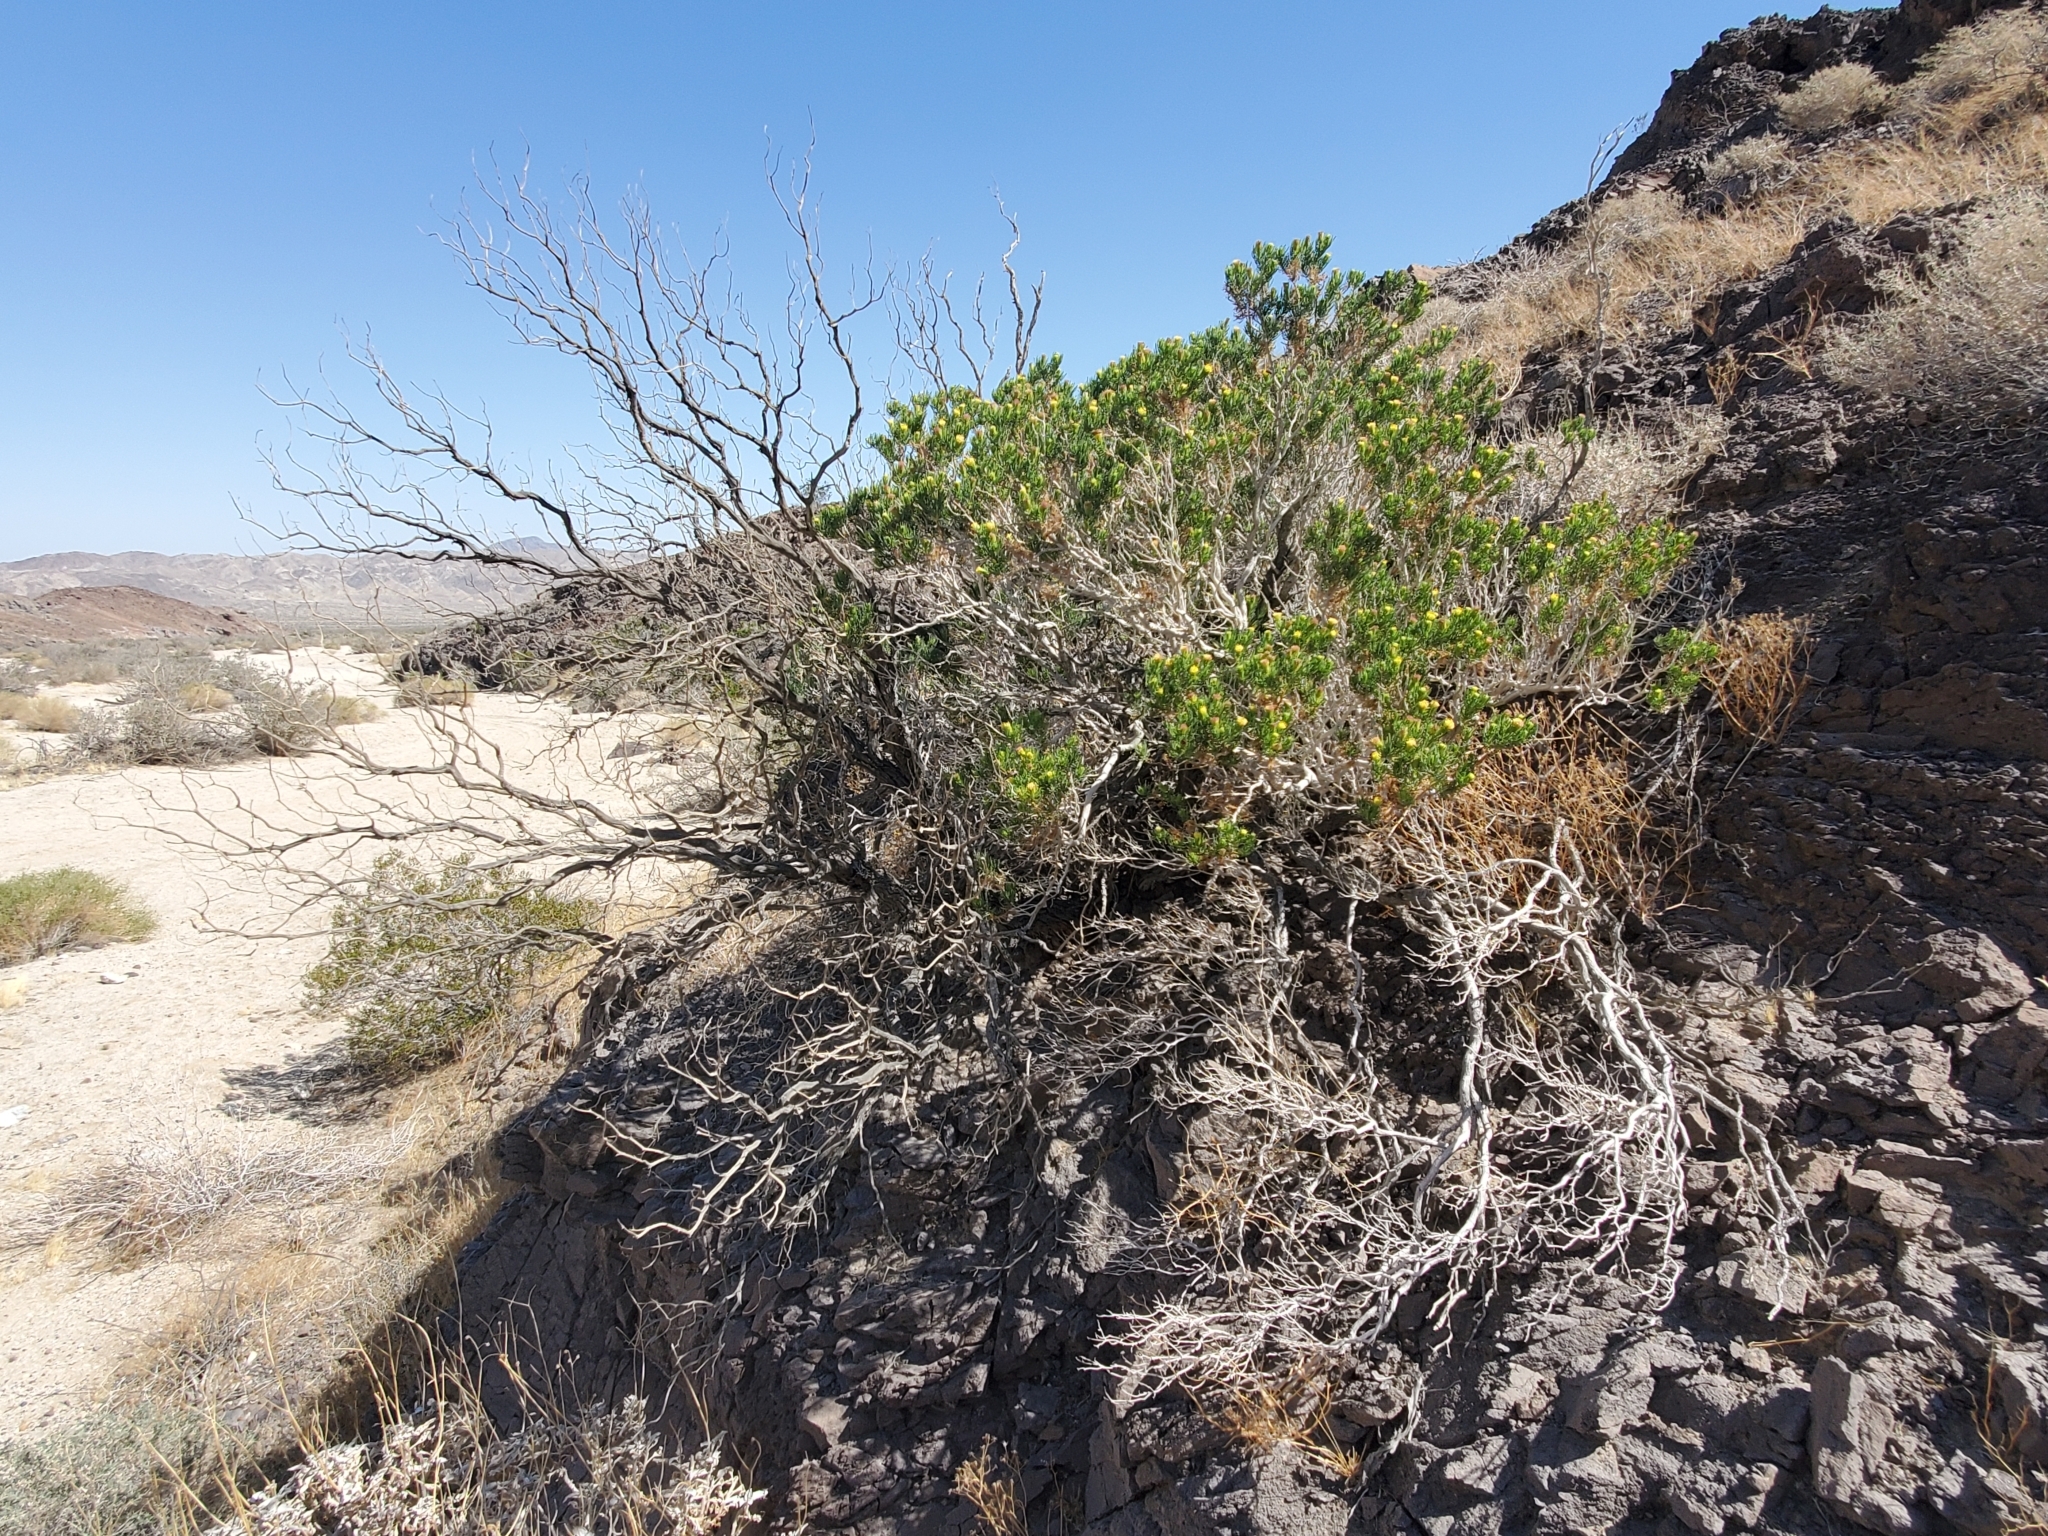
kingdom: Plantae
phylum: Tracheophyta
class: Magnoliopsida
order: Asterales
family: Asteraceae
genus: Peucephyllum
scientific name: Peucephyllum schottii
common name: Pygmy-cedar
